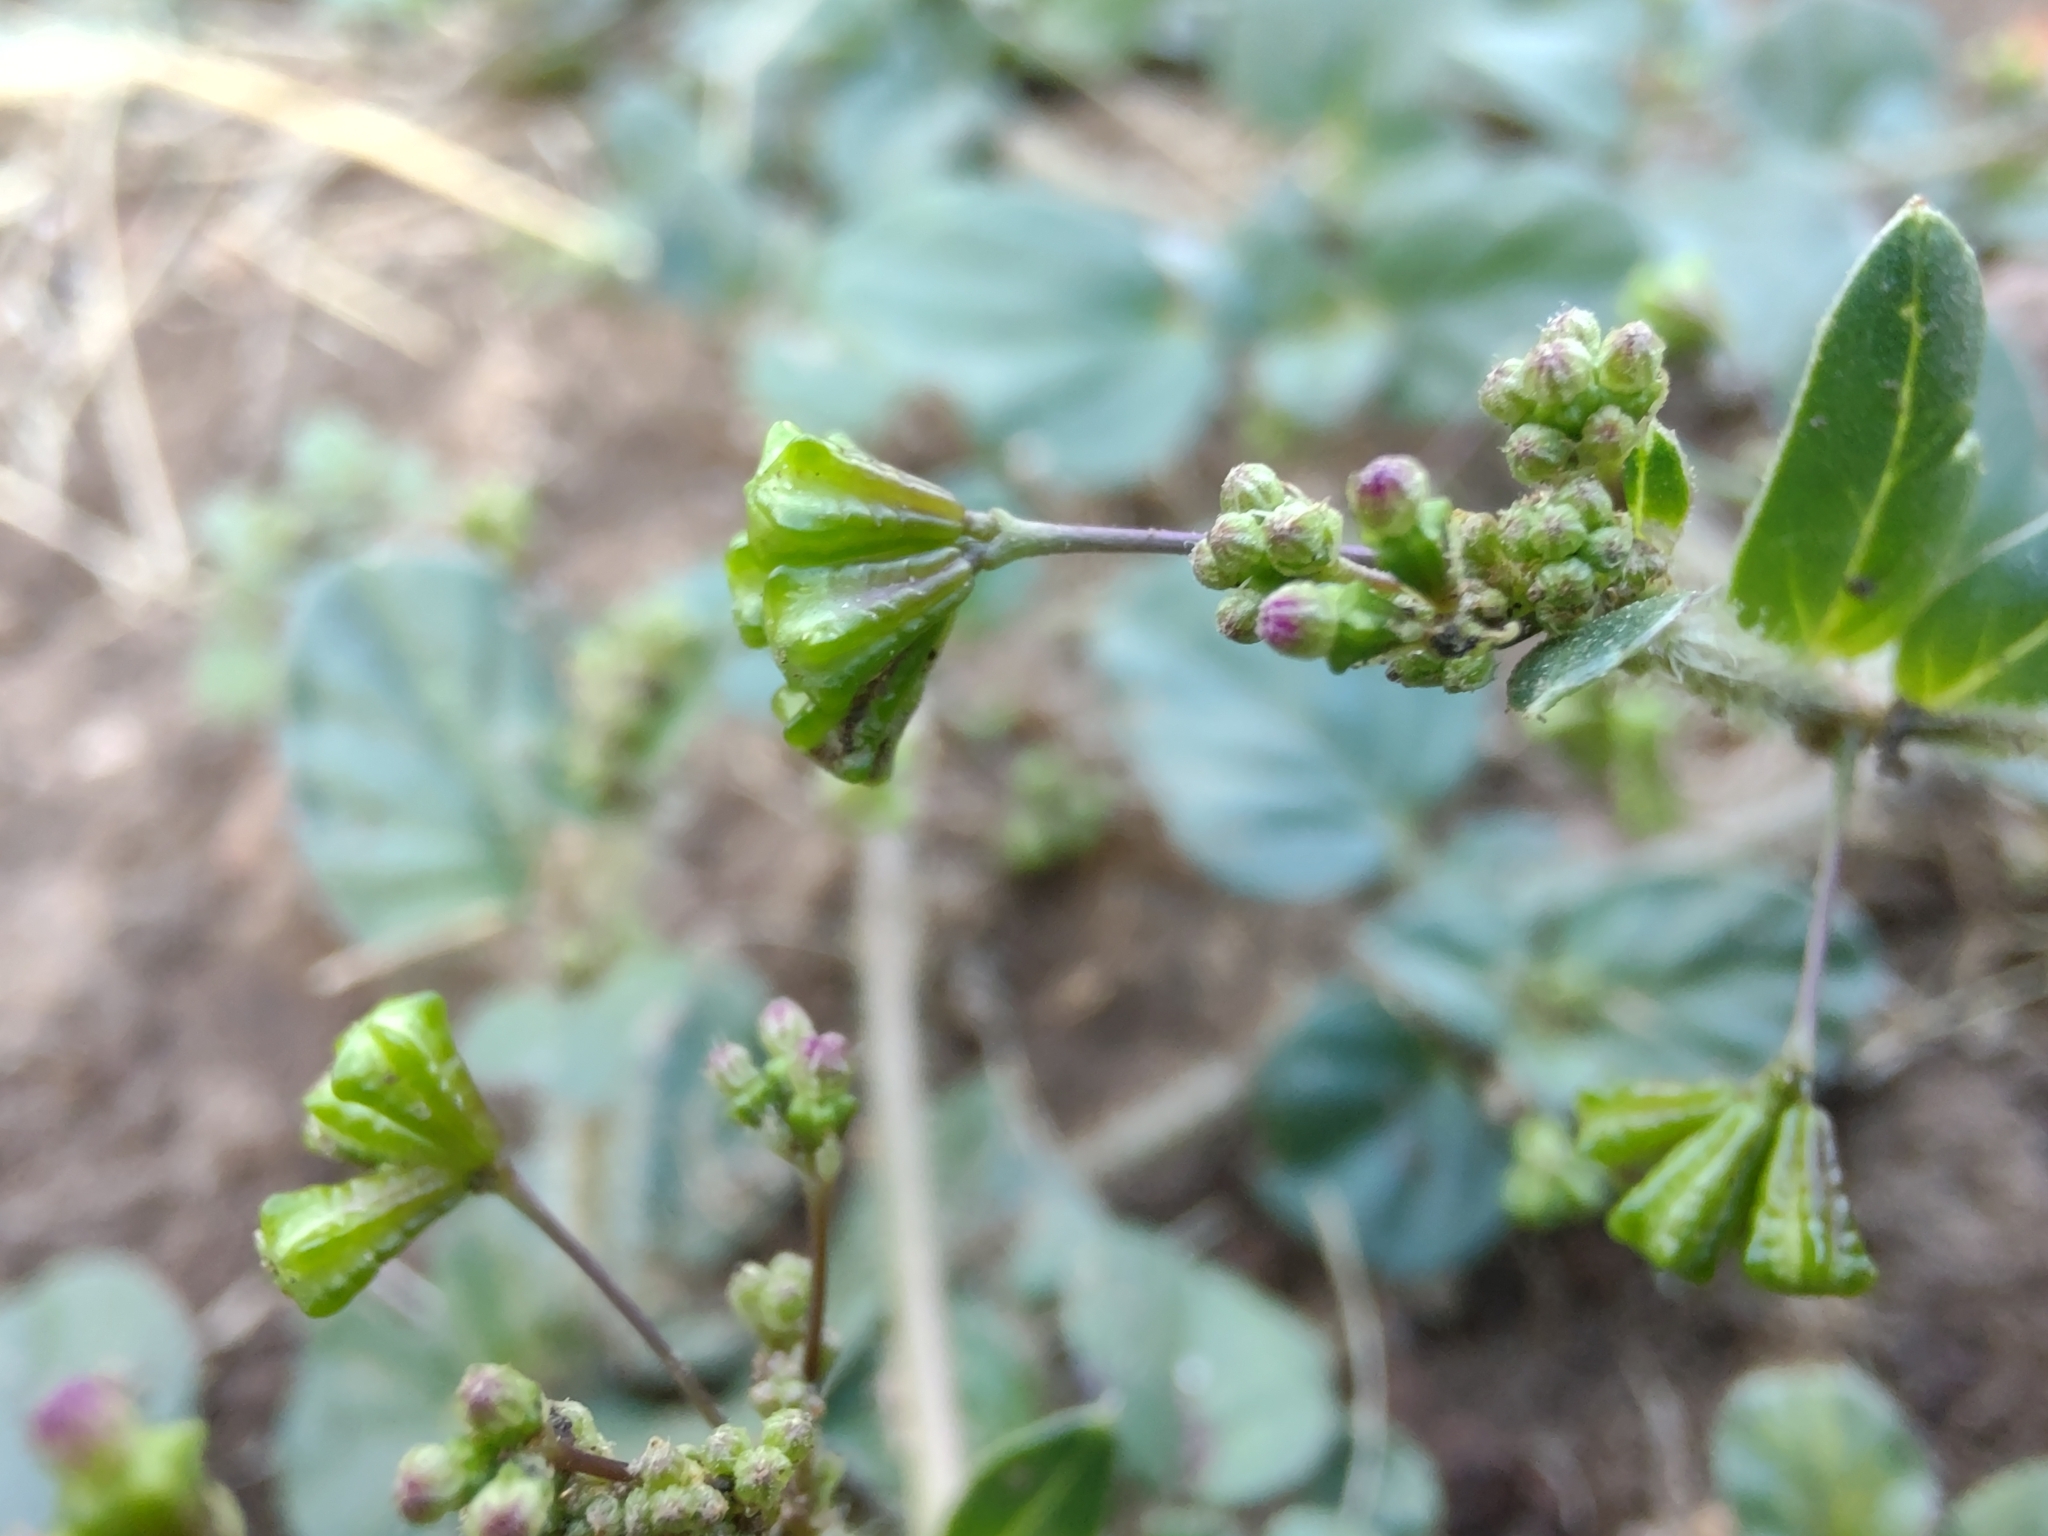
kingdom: Plantae
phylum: Tracheophyta
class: Magnoliopsida
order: Caryophyllales
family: Nyctaginaceae
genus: Boerhavia
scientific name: Boerhavia diffusa
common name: Red spiderling
